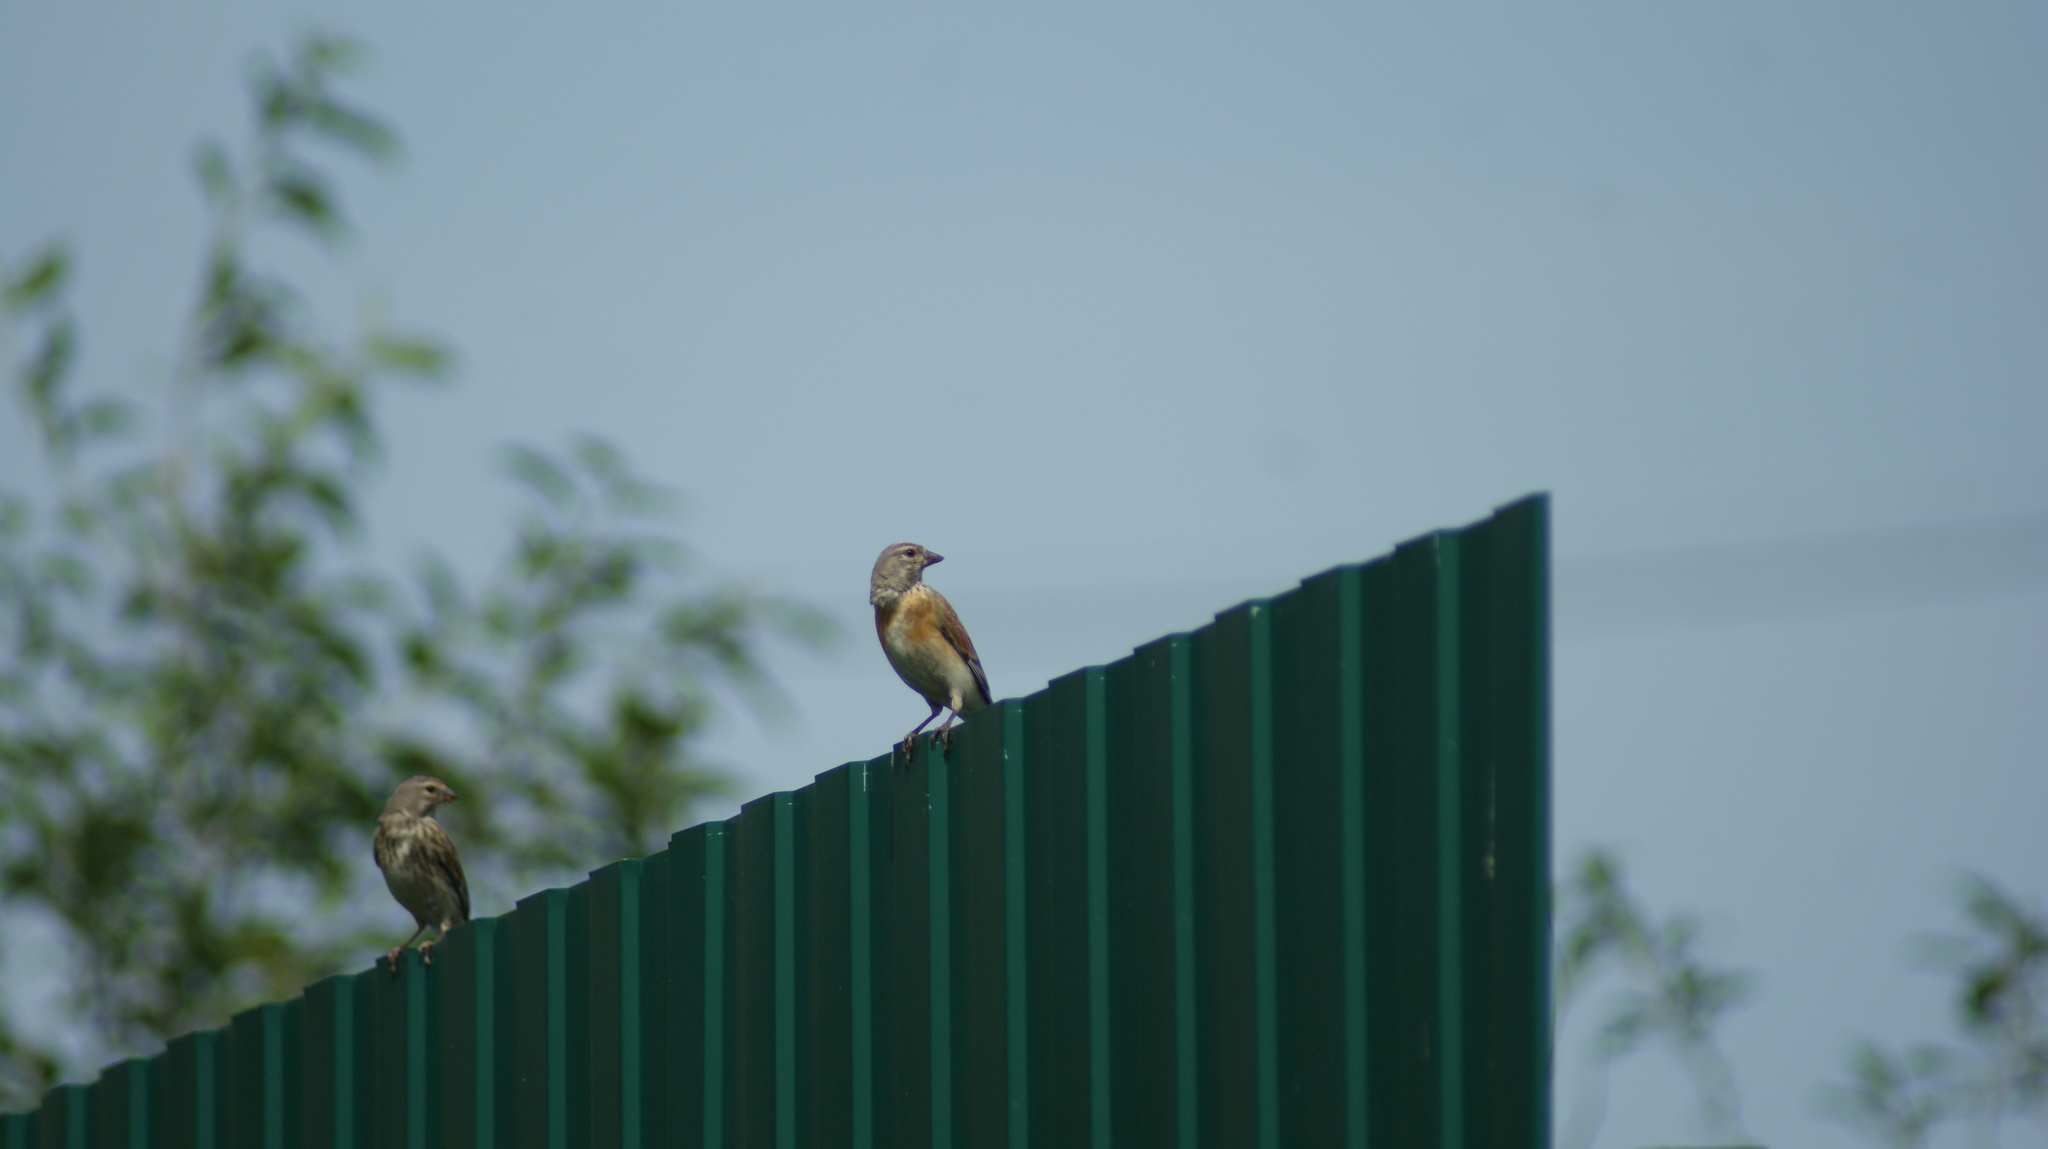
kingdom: Animalia
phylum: Chordata
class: Aves
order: Passeriformes
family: Fringillidae
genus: Linaria
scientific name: Linaria cannabina
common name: Common linnet
